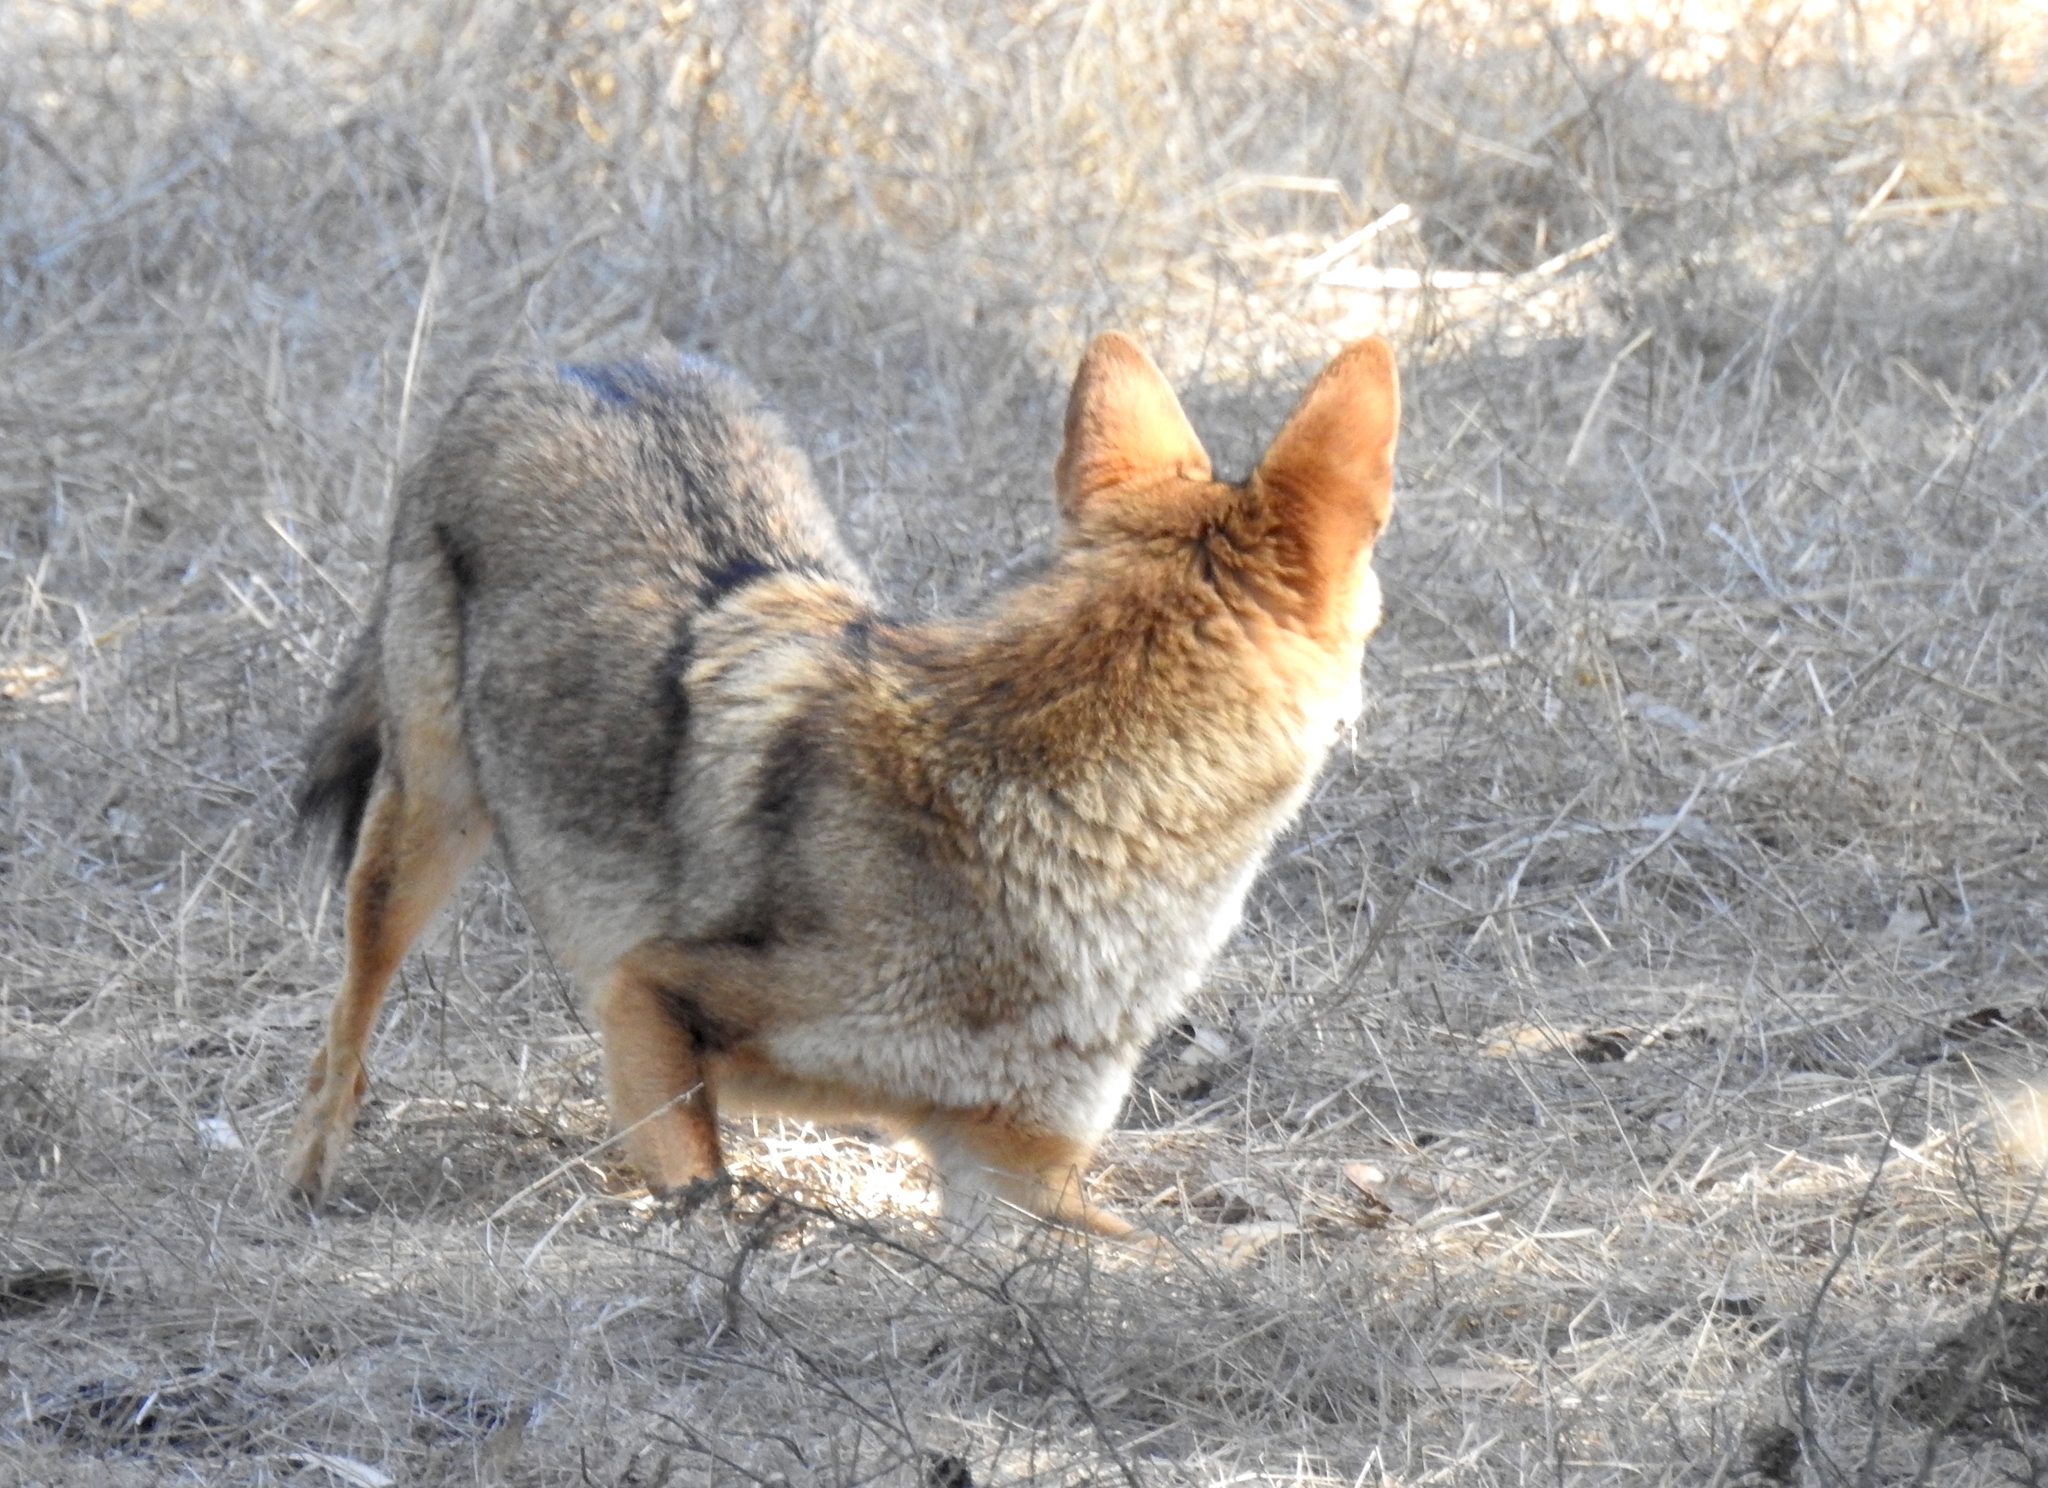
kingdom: Animalia
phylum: Chordata
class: Mammalia
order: Carnivora
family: Canidae
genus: Canis
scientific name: Canis latrans
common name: Coyote
